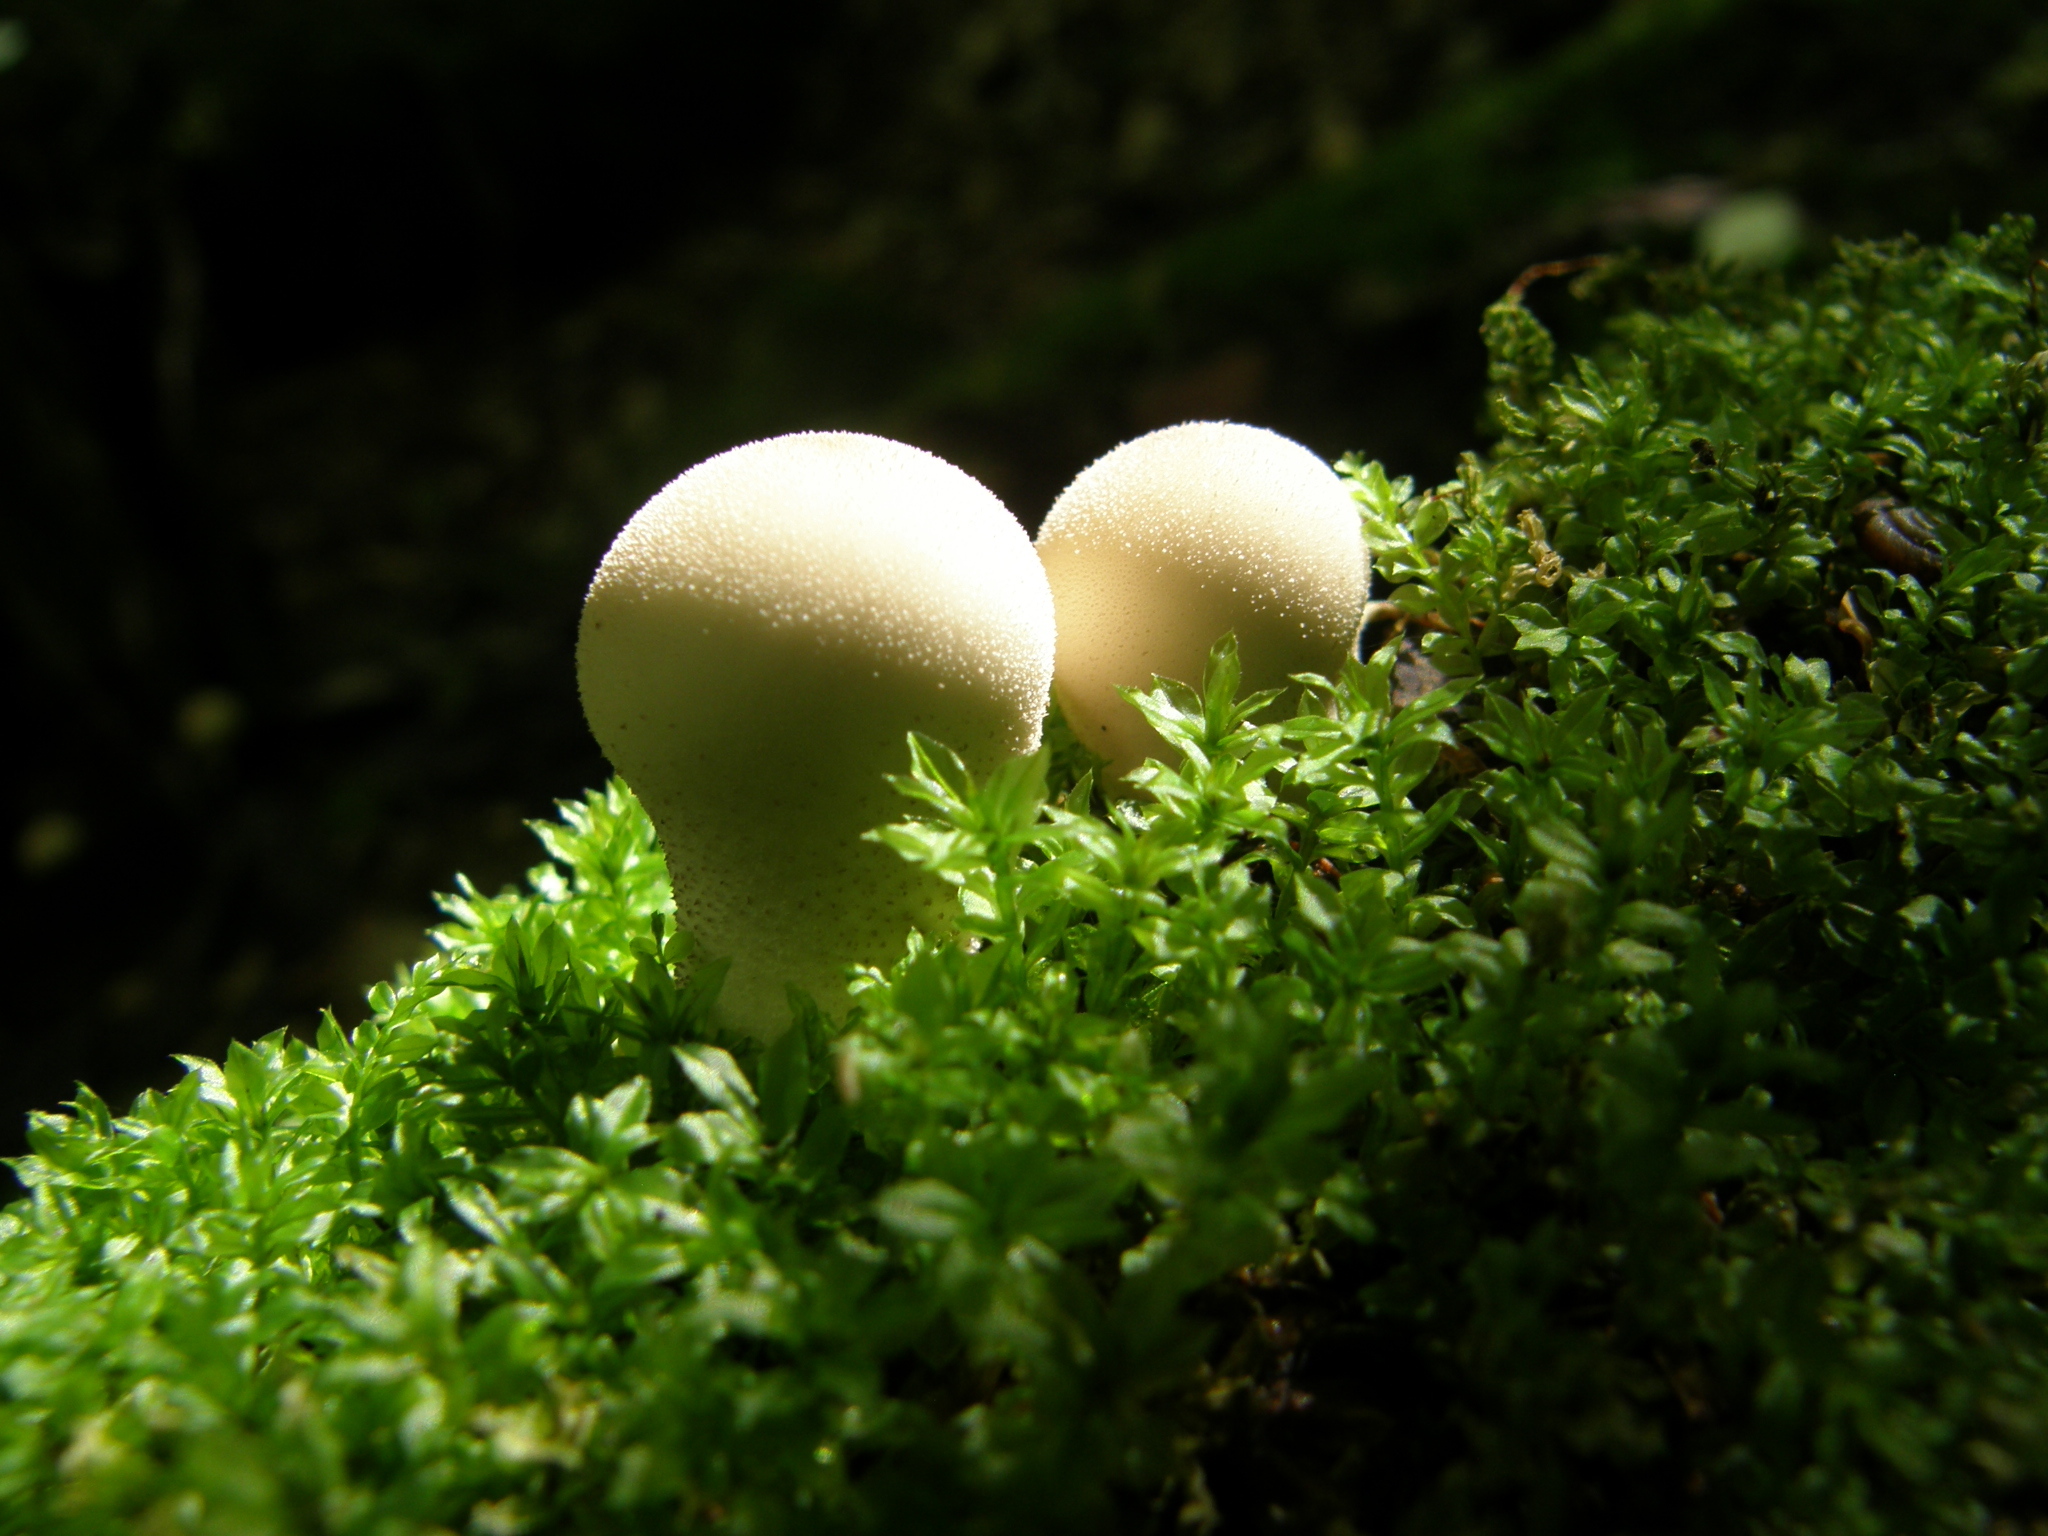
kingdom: Fungi
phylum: Basidiomycota
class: Agaricomycetes
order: Agaricales
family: Lycoperdaceae
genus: Apioperdon
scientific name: Apioperdon pyriforme
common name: Pear-shaped puffball
